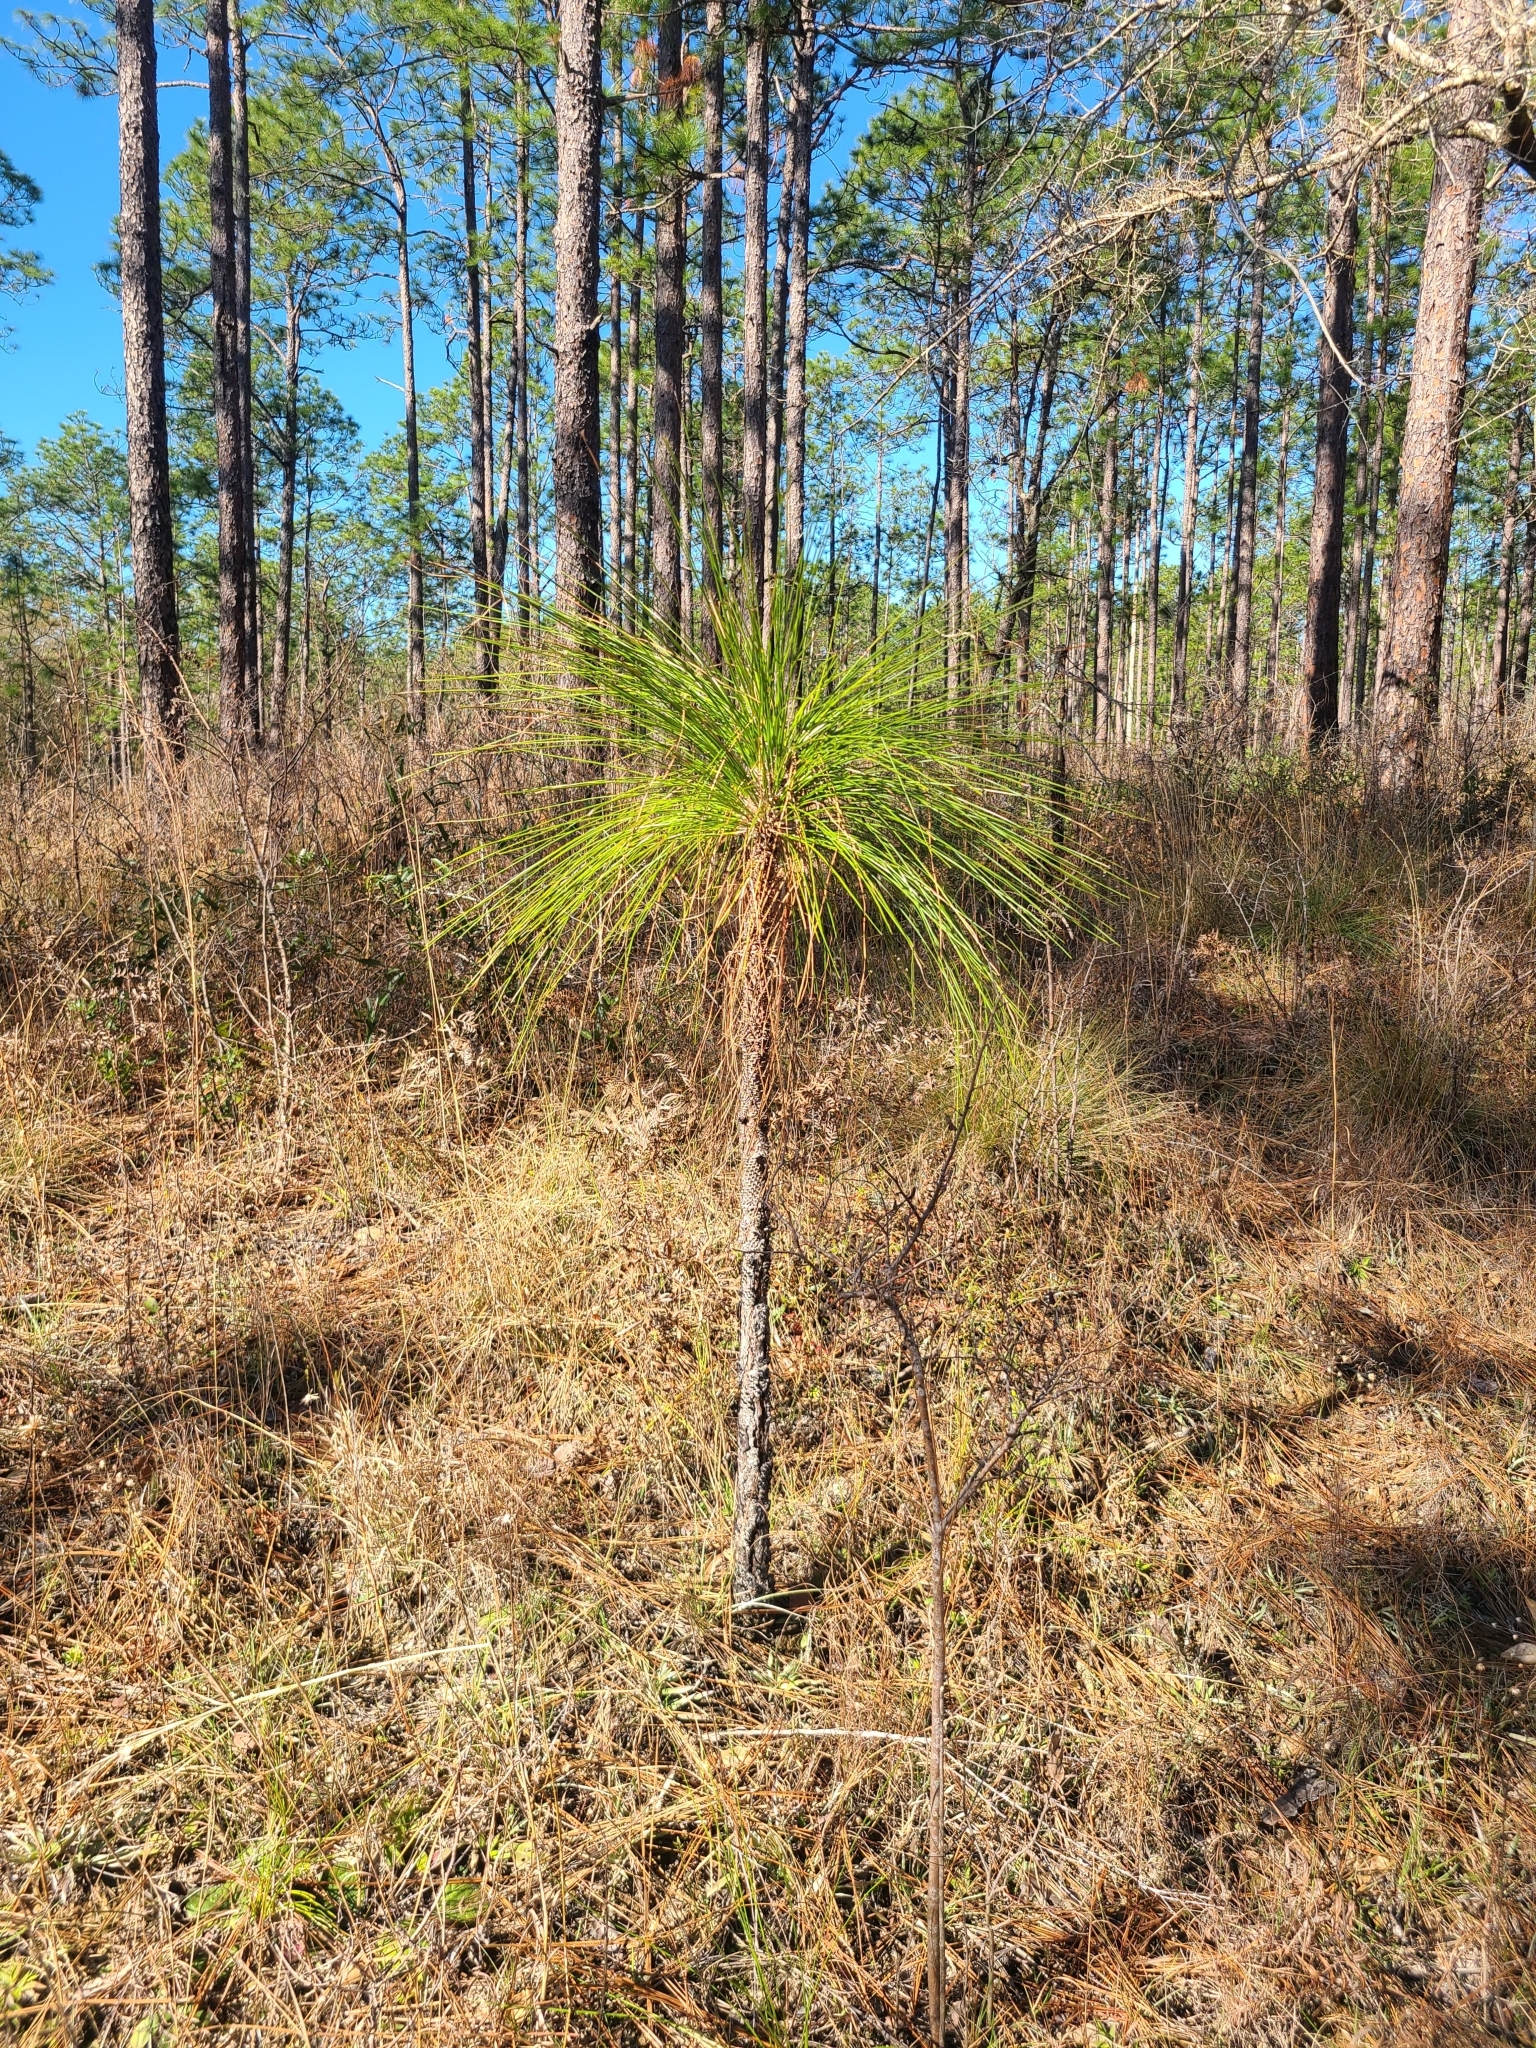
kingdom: Plantae
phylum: Tracheophyta
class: Pinopsida
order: Pinales
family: Pinaceae
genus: Pinus
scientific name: Pinus palustris
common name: Longleaf pine
